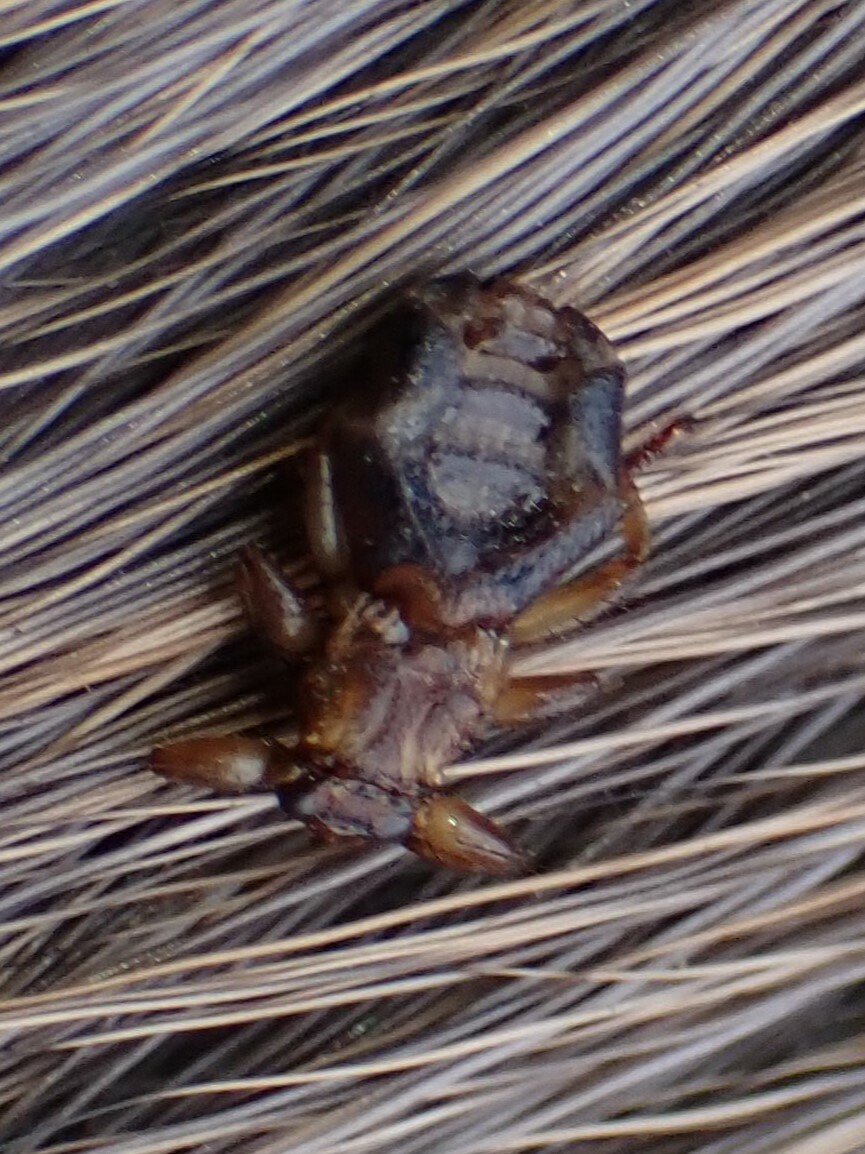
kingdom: Animalia
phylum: Arthropoda
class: Insecta
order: Diptera
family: Hippoboscidae
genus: Lipoptena
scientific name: Lipoptena cervi
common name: Deer ked
